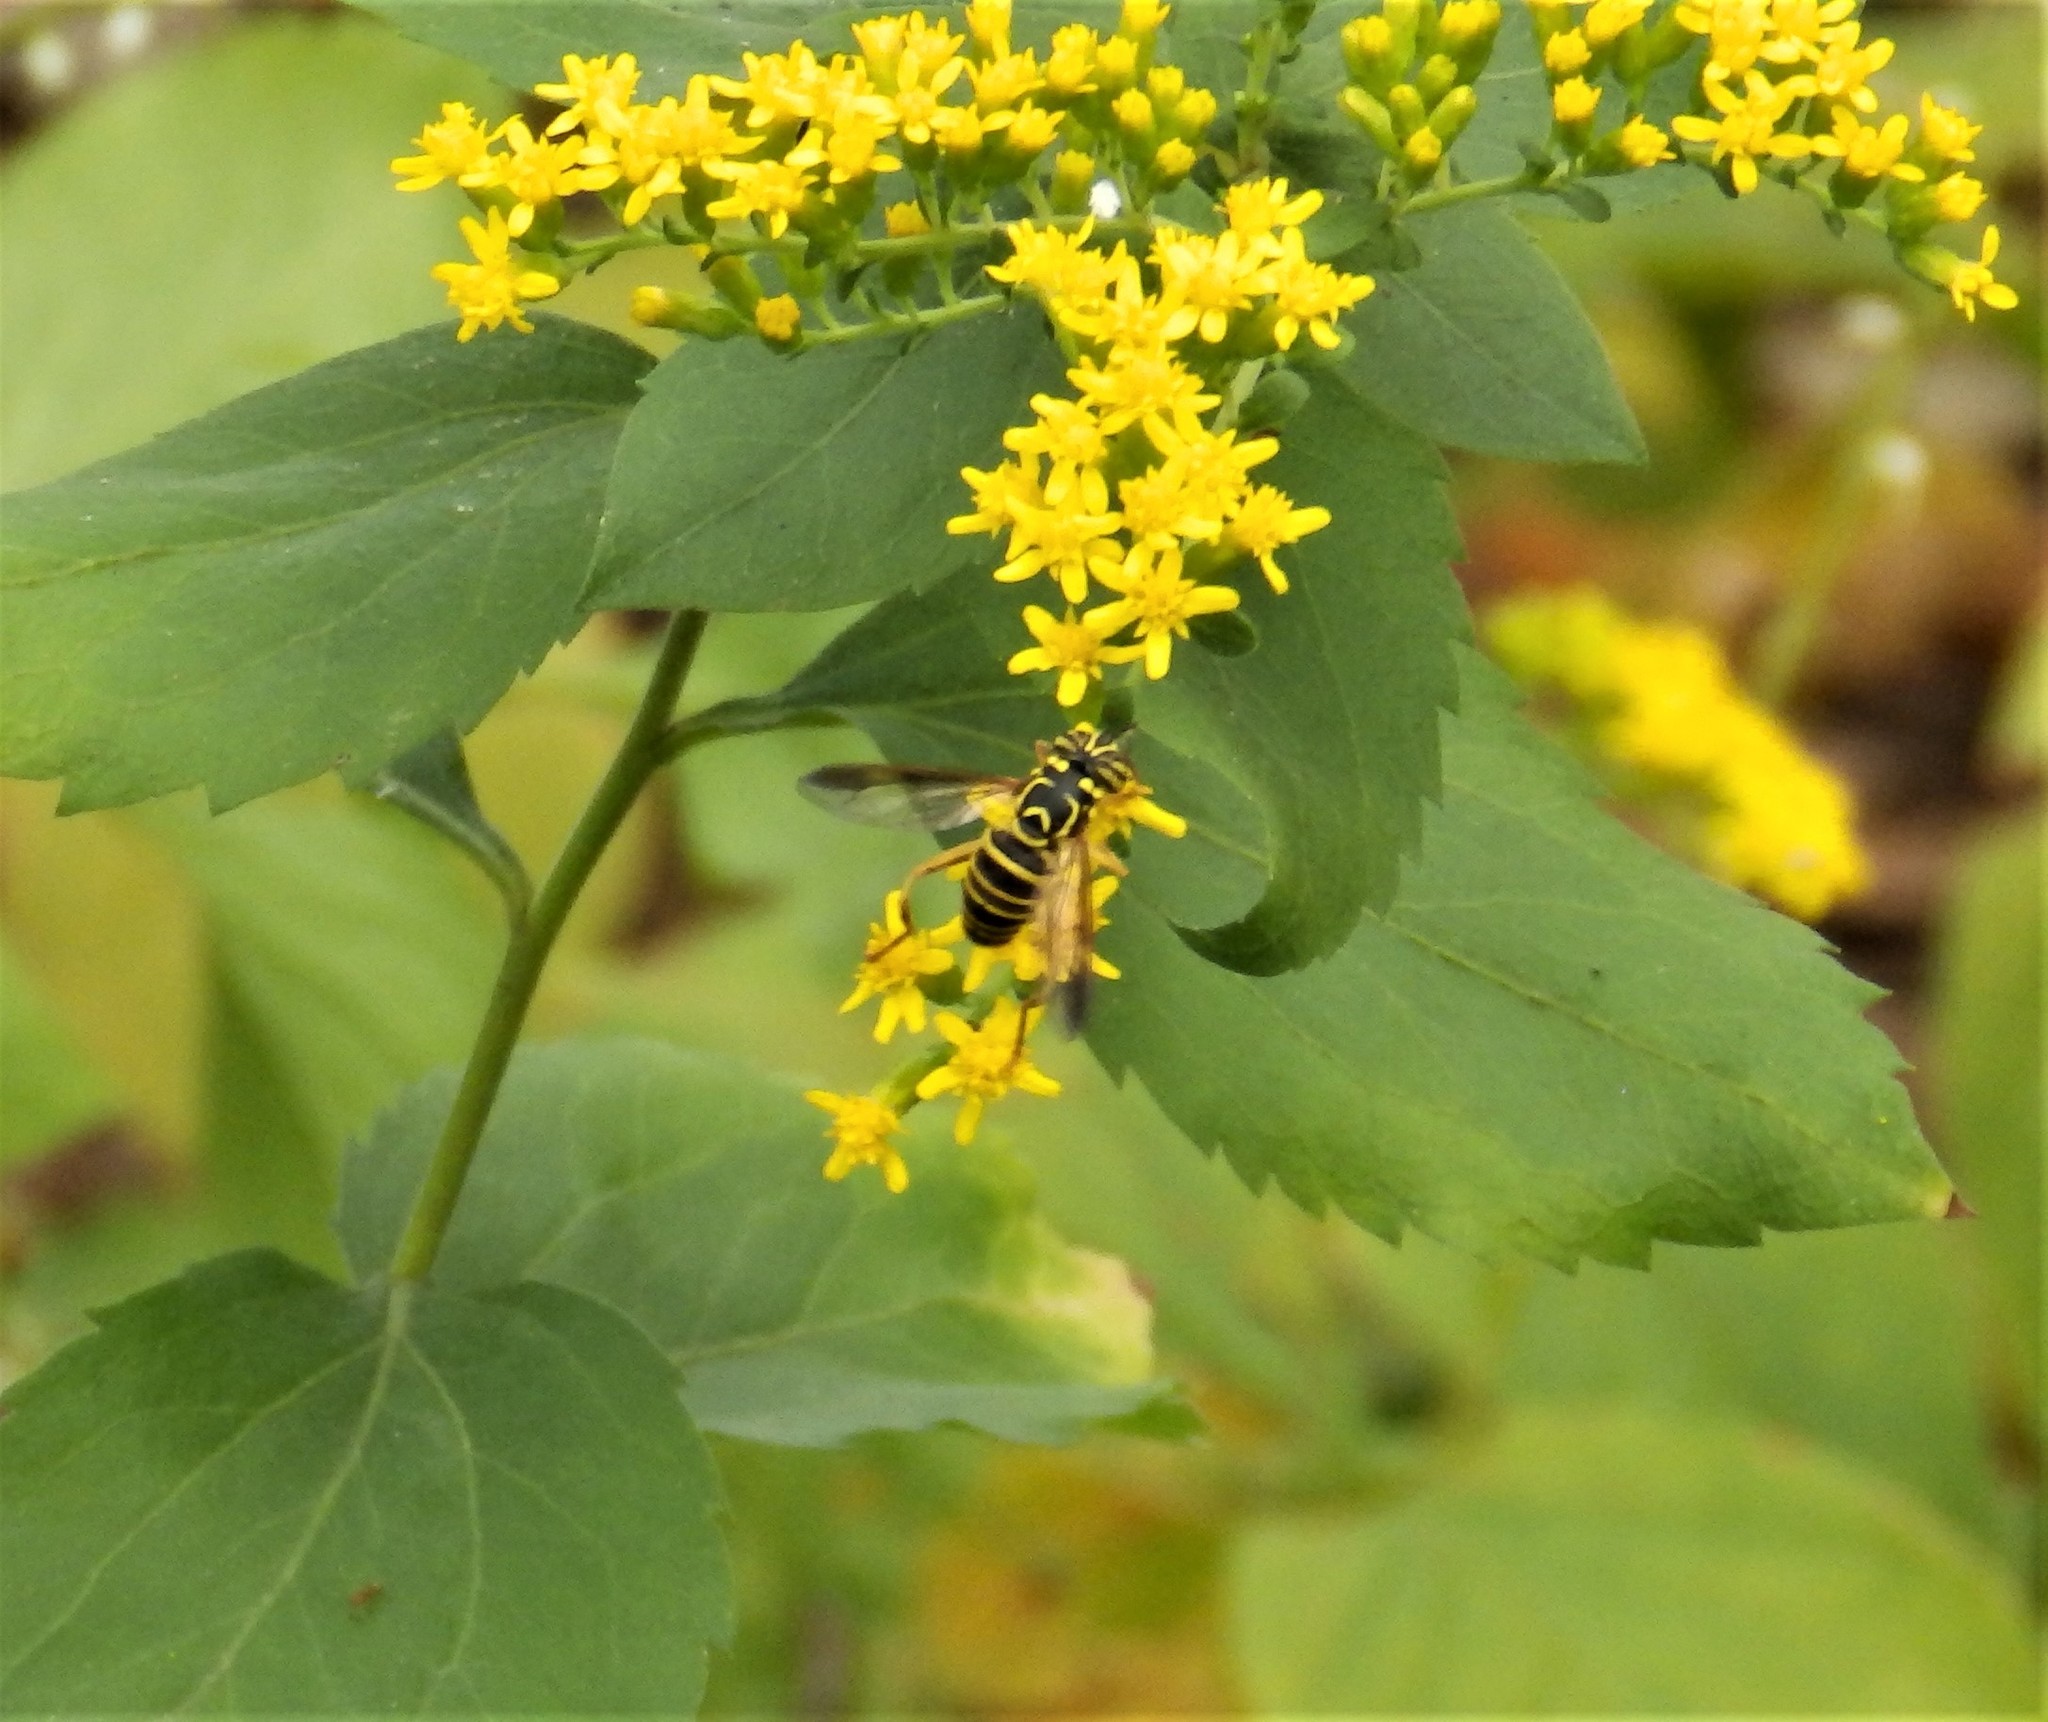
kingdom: Animalia
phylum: Arthropoda
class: Insecta
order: Diptera
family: Syrphidae
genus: Spilomyia
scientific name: Spilomyia longicornis
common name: Eastern hornet fly
